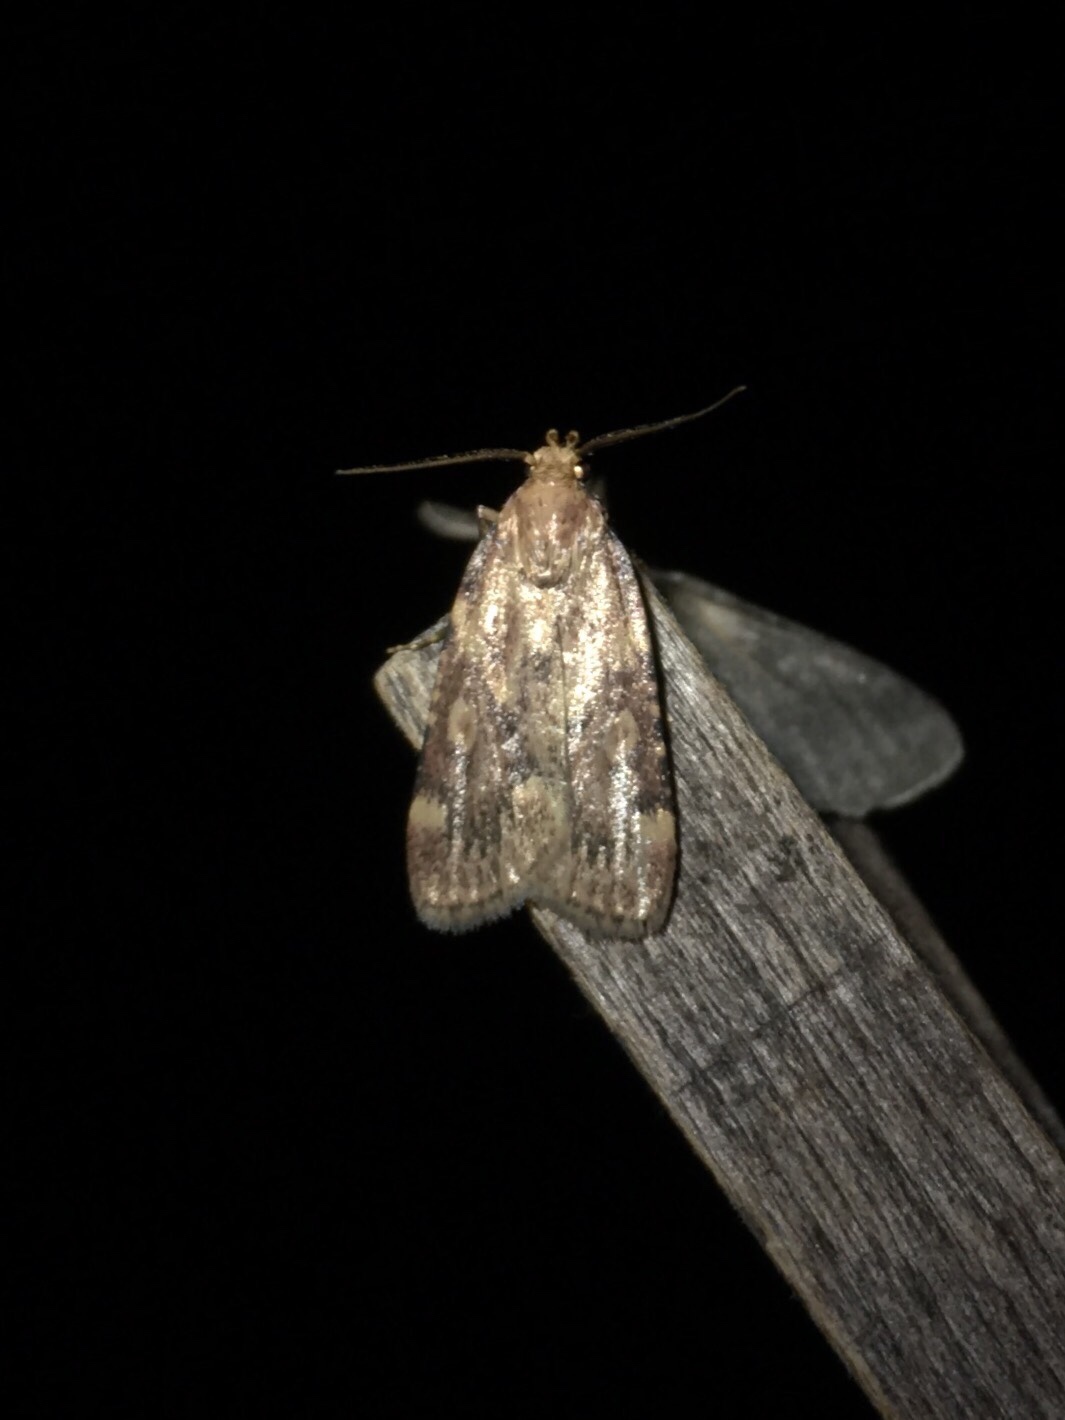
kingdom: Animalia
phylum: Arthropoda
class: Insecta
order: Lepidoptera
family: Pyralidae
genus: Aglossa
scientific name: Aglossa cuprina
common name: Grease moth
